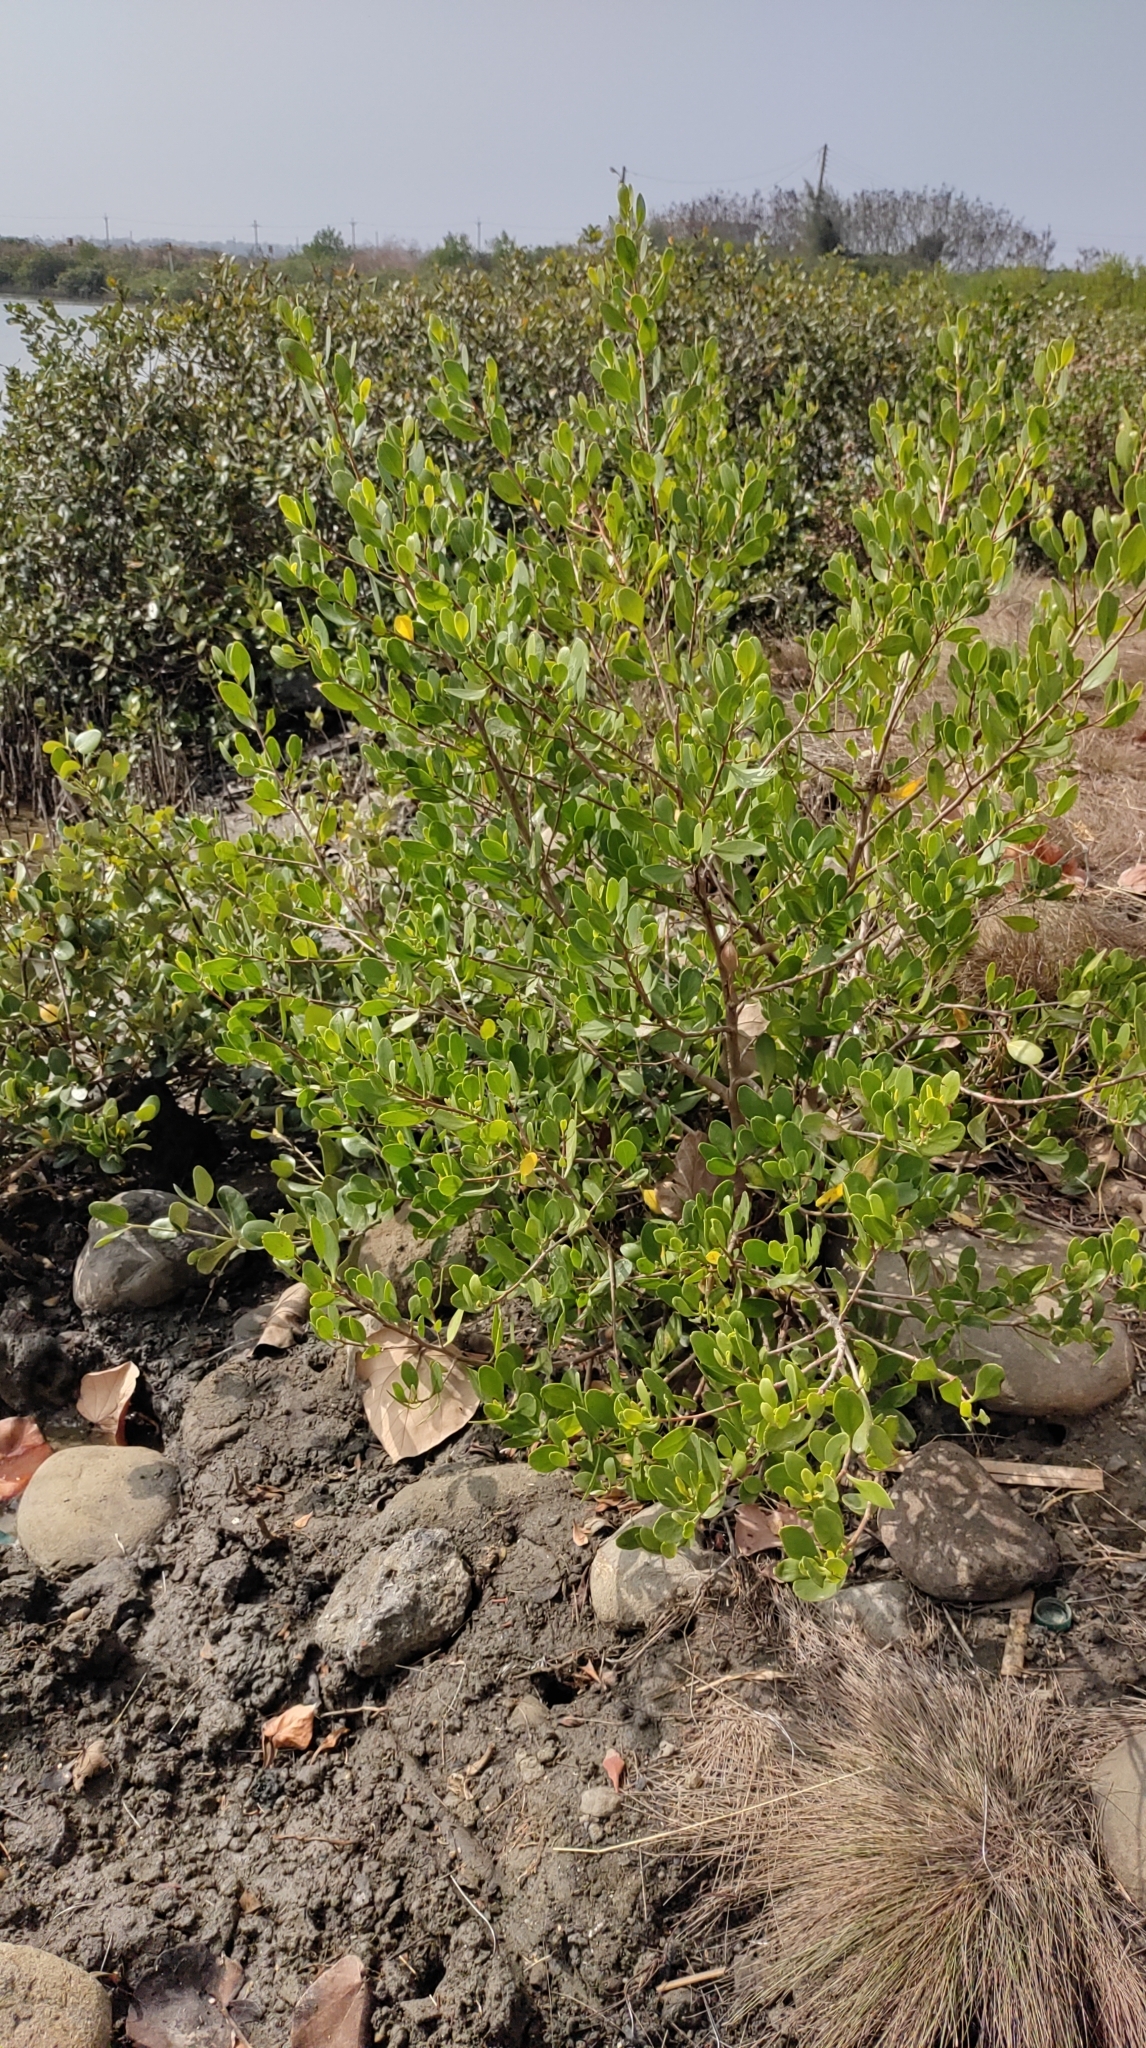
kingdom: Plantae
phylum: Tracheophyta
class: Magnoliopsida
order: Myrtales
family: Combretaceae
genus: Lumnitzera
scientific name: Lumnitzera racemosa
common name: White-flowered black mangrove
